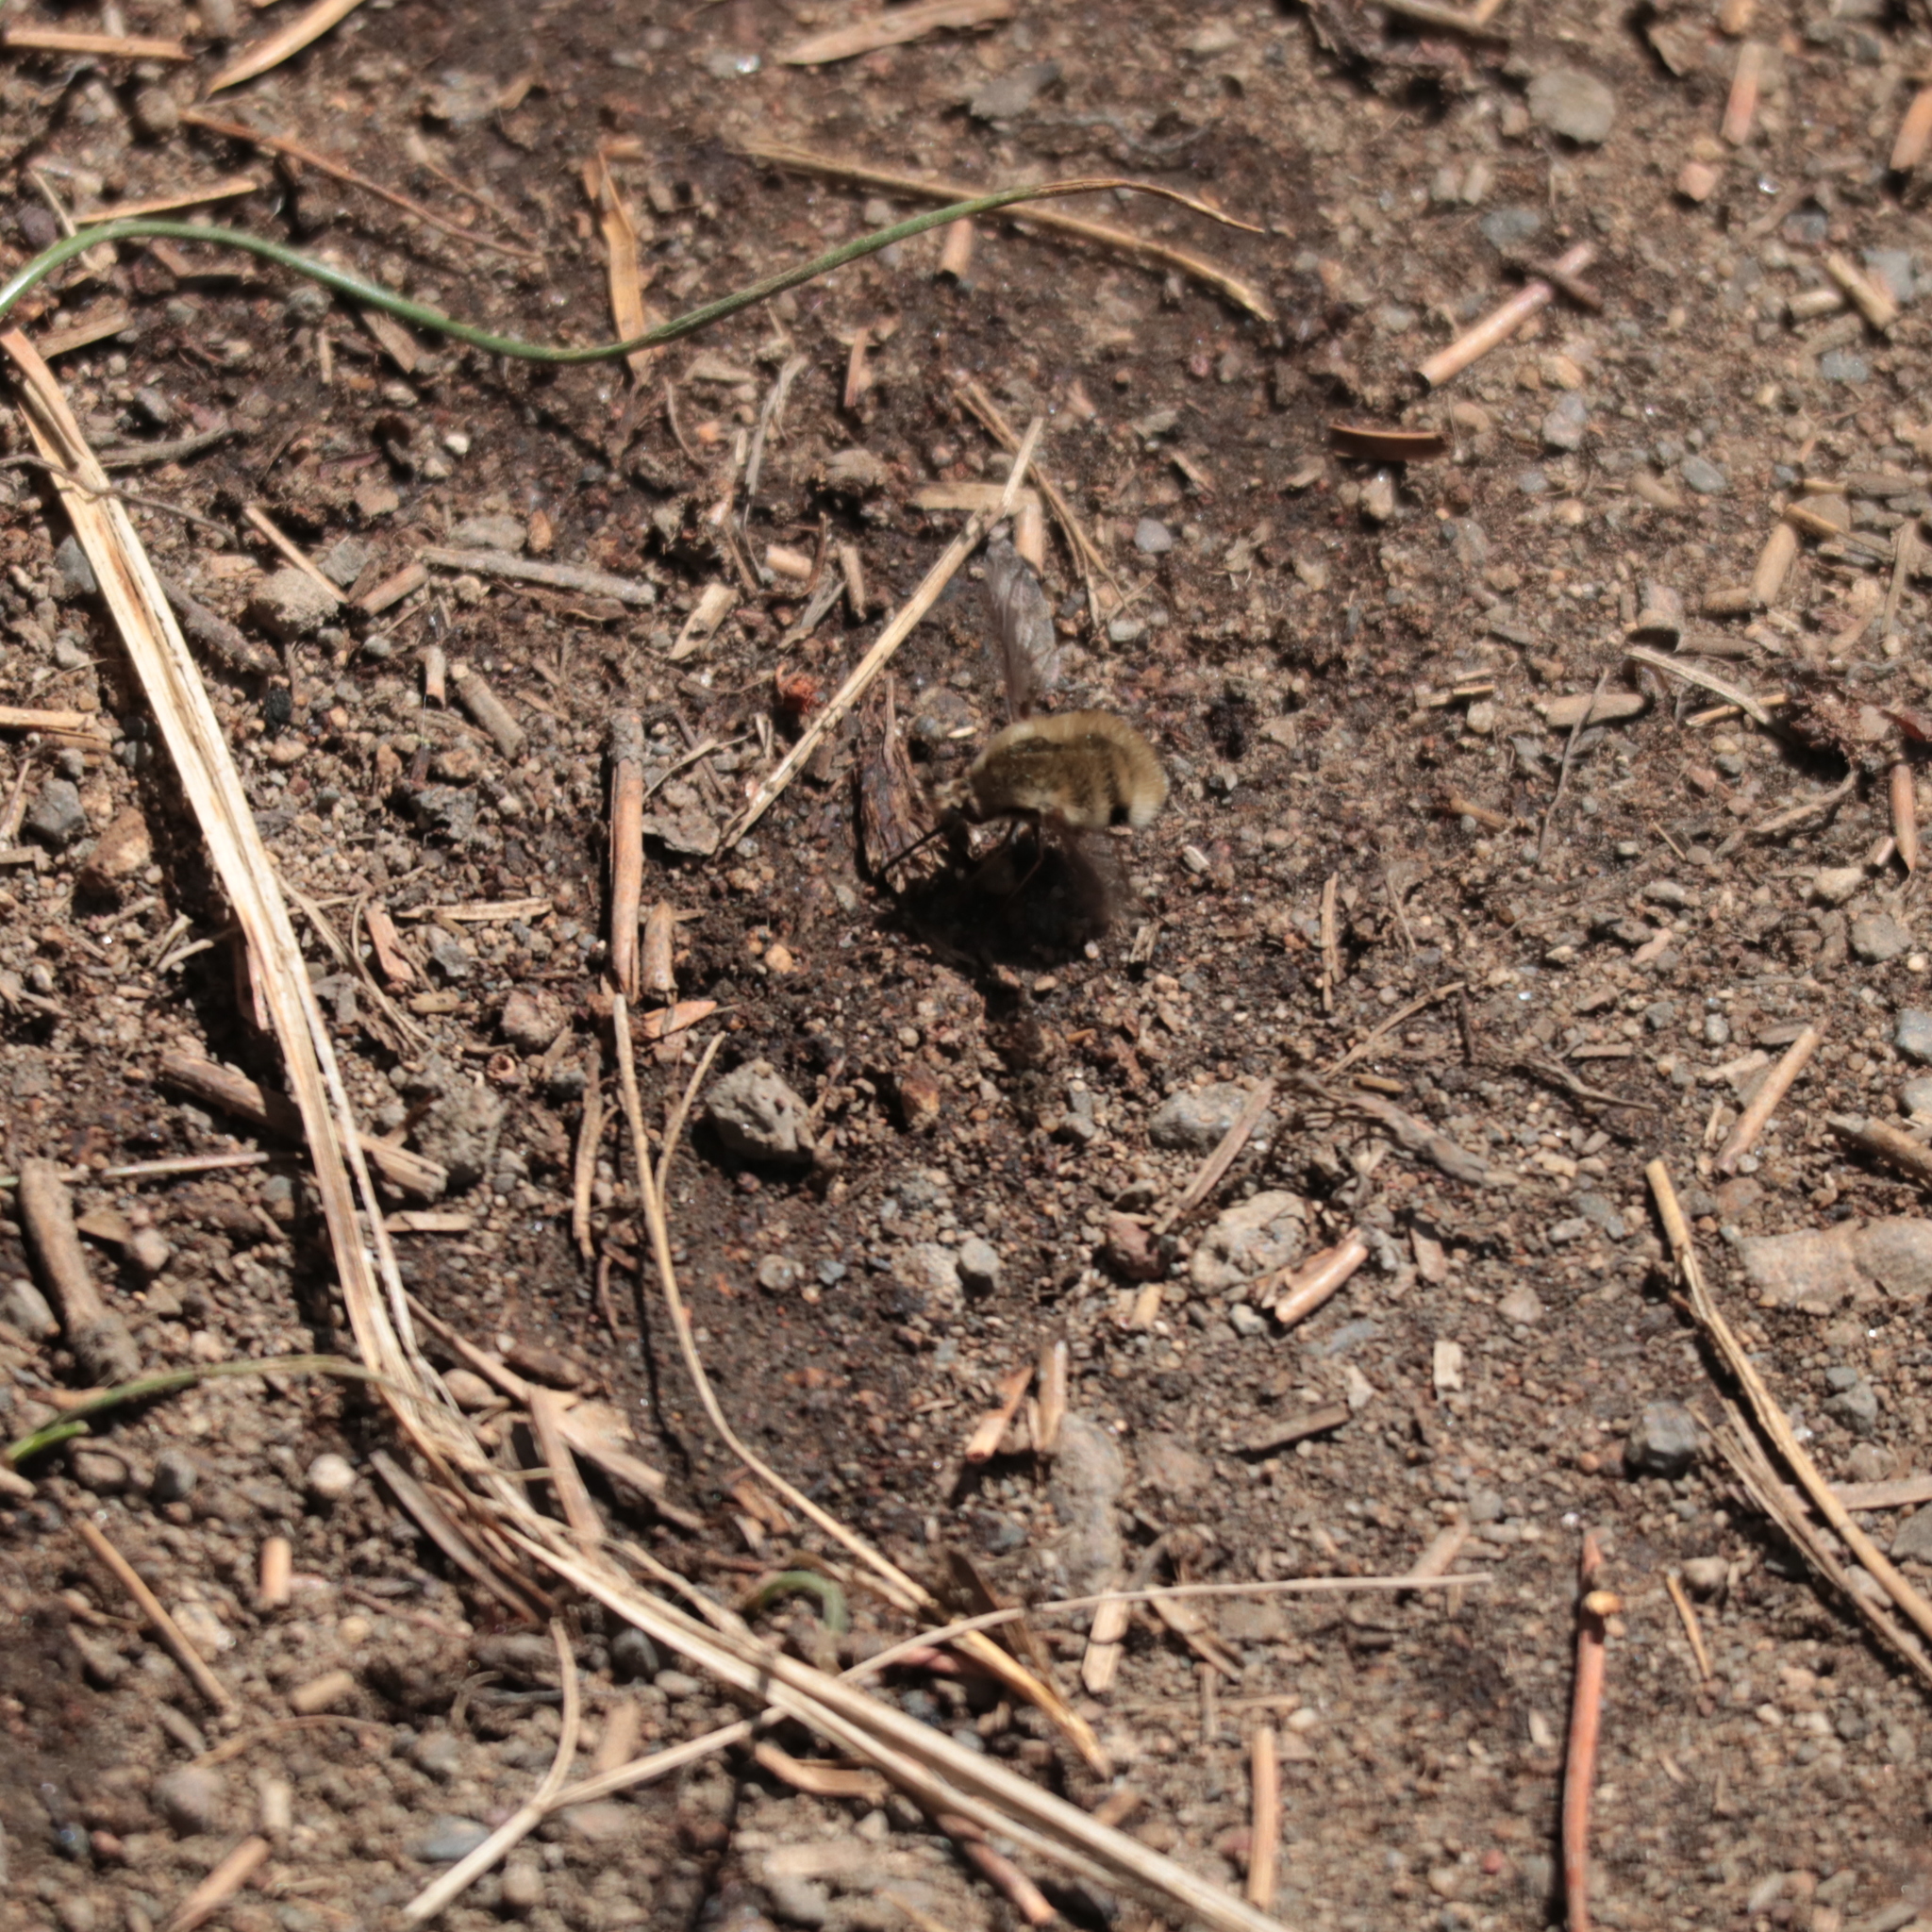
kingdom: Animalia
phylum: Arthropoda
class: Insecta
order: Diptera
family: Bombyliidae
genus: Bombylius
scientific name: Bombylius major
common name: Bee fly
